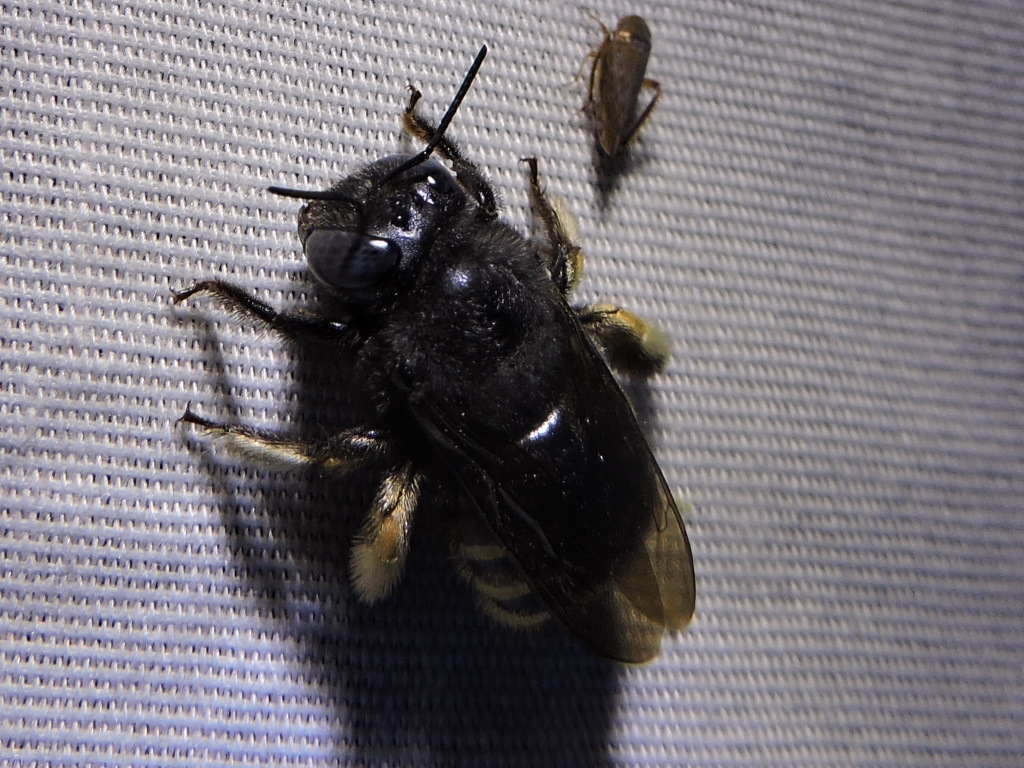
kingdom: Animalia
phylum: Arthropoda
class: Insecta
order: Hymenoptera
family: Apidae
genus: Xylocopa
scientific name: Xylocopa tabaniformis
